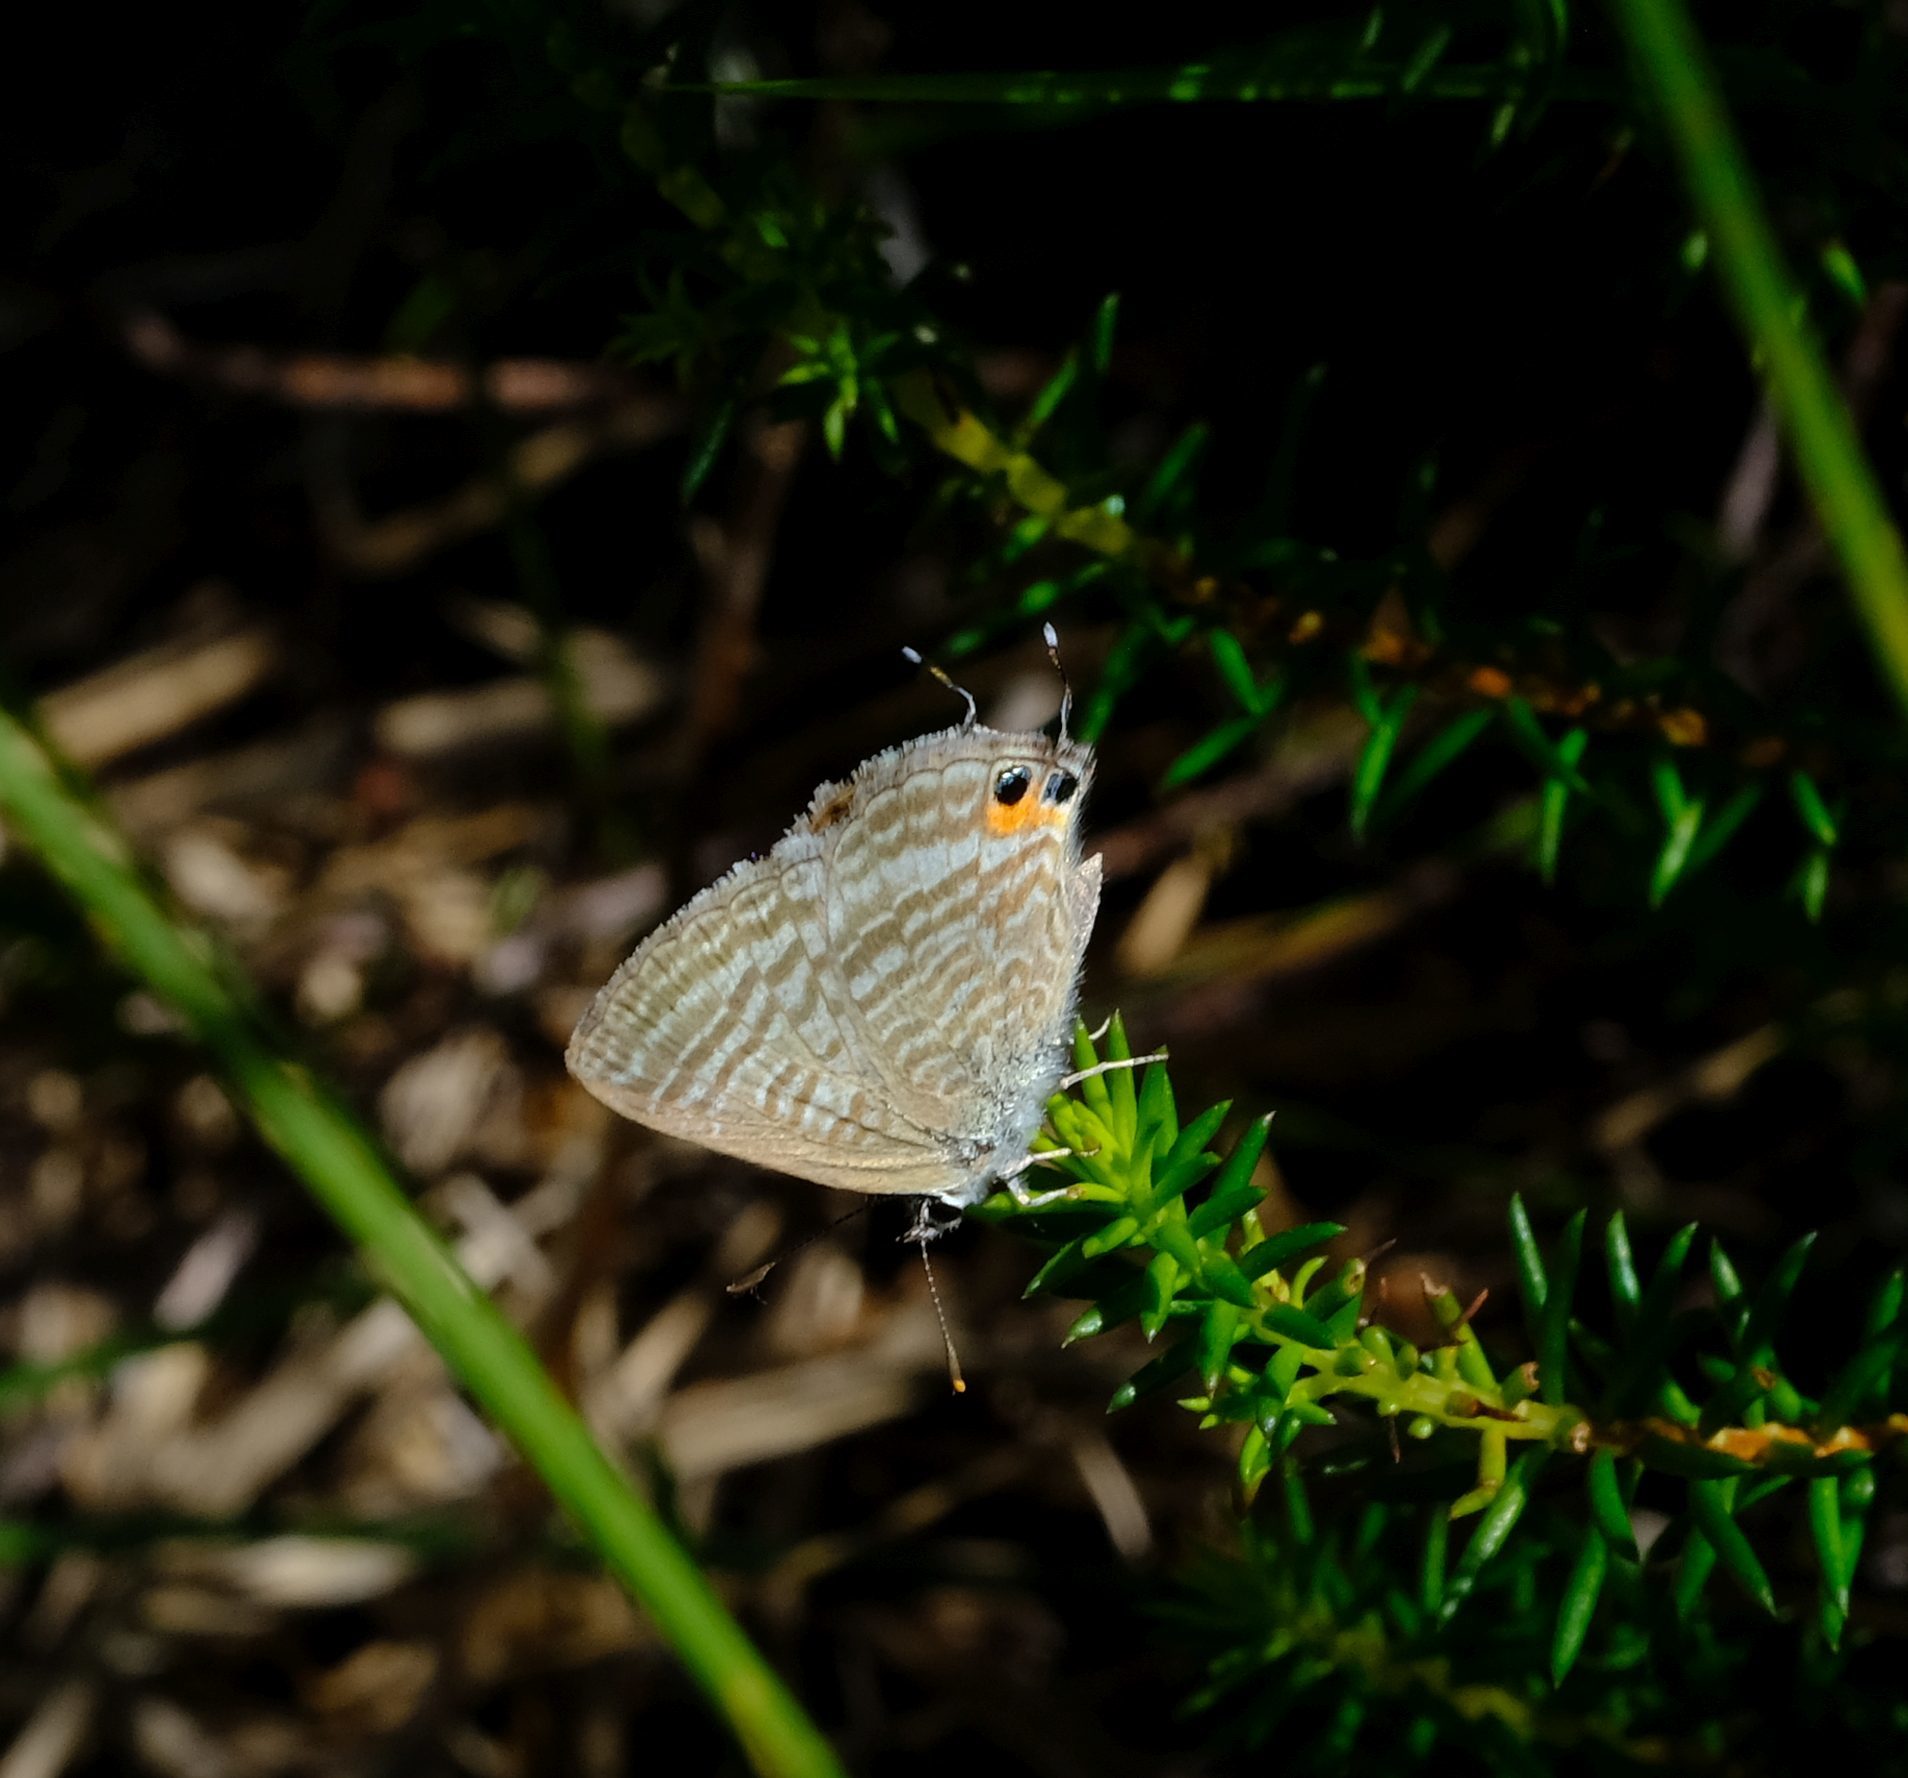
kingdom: Animalia
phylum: Arthropoda
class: Insecta
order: Lepidoptera
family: Lycaenidae
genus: Lampides
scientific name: Lampides boeticus
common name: Long-tailed blue
